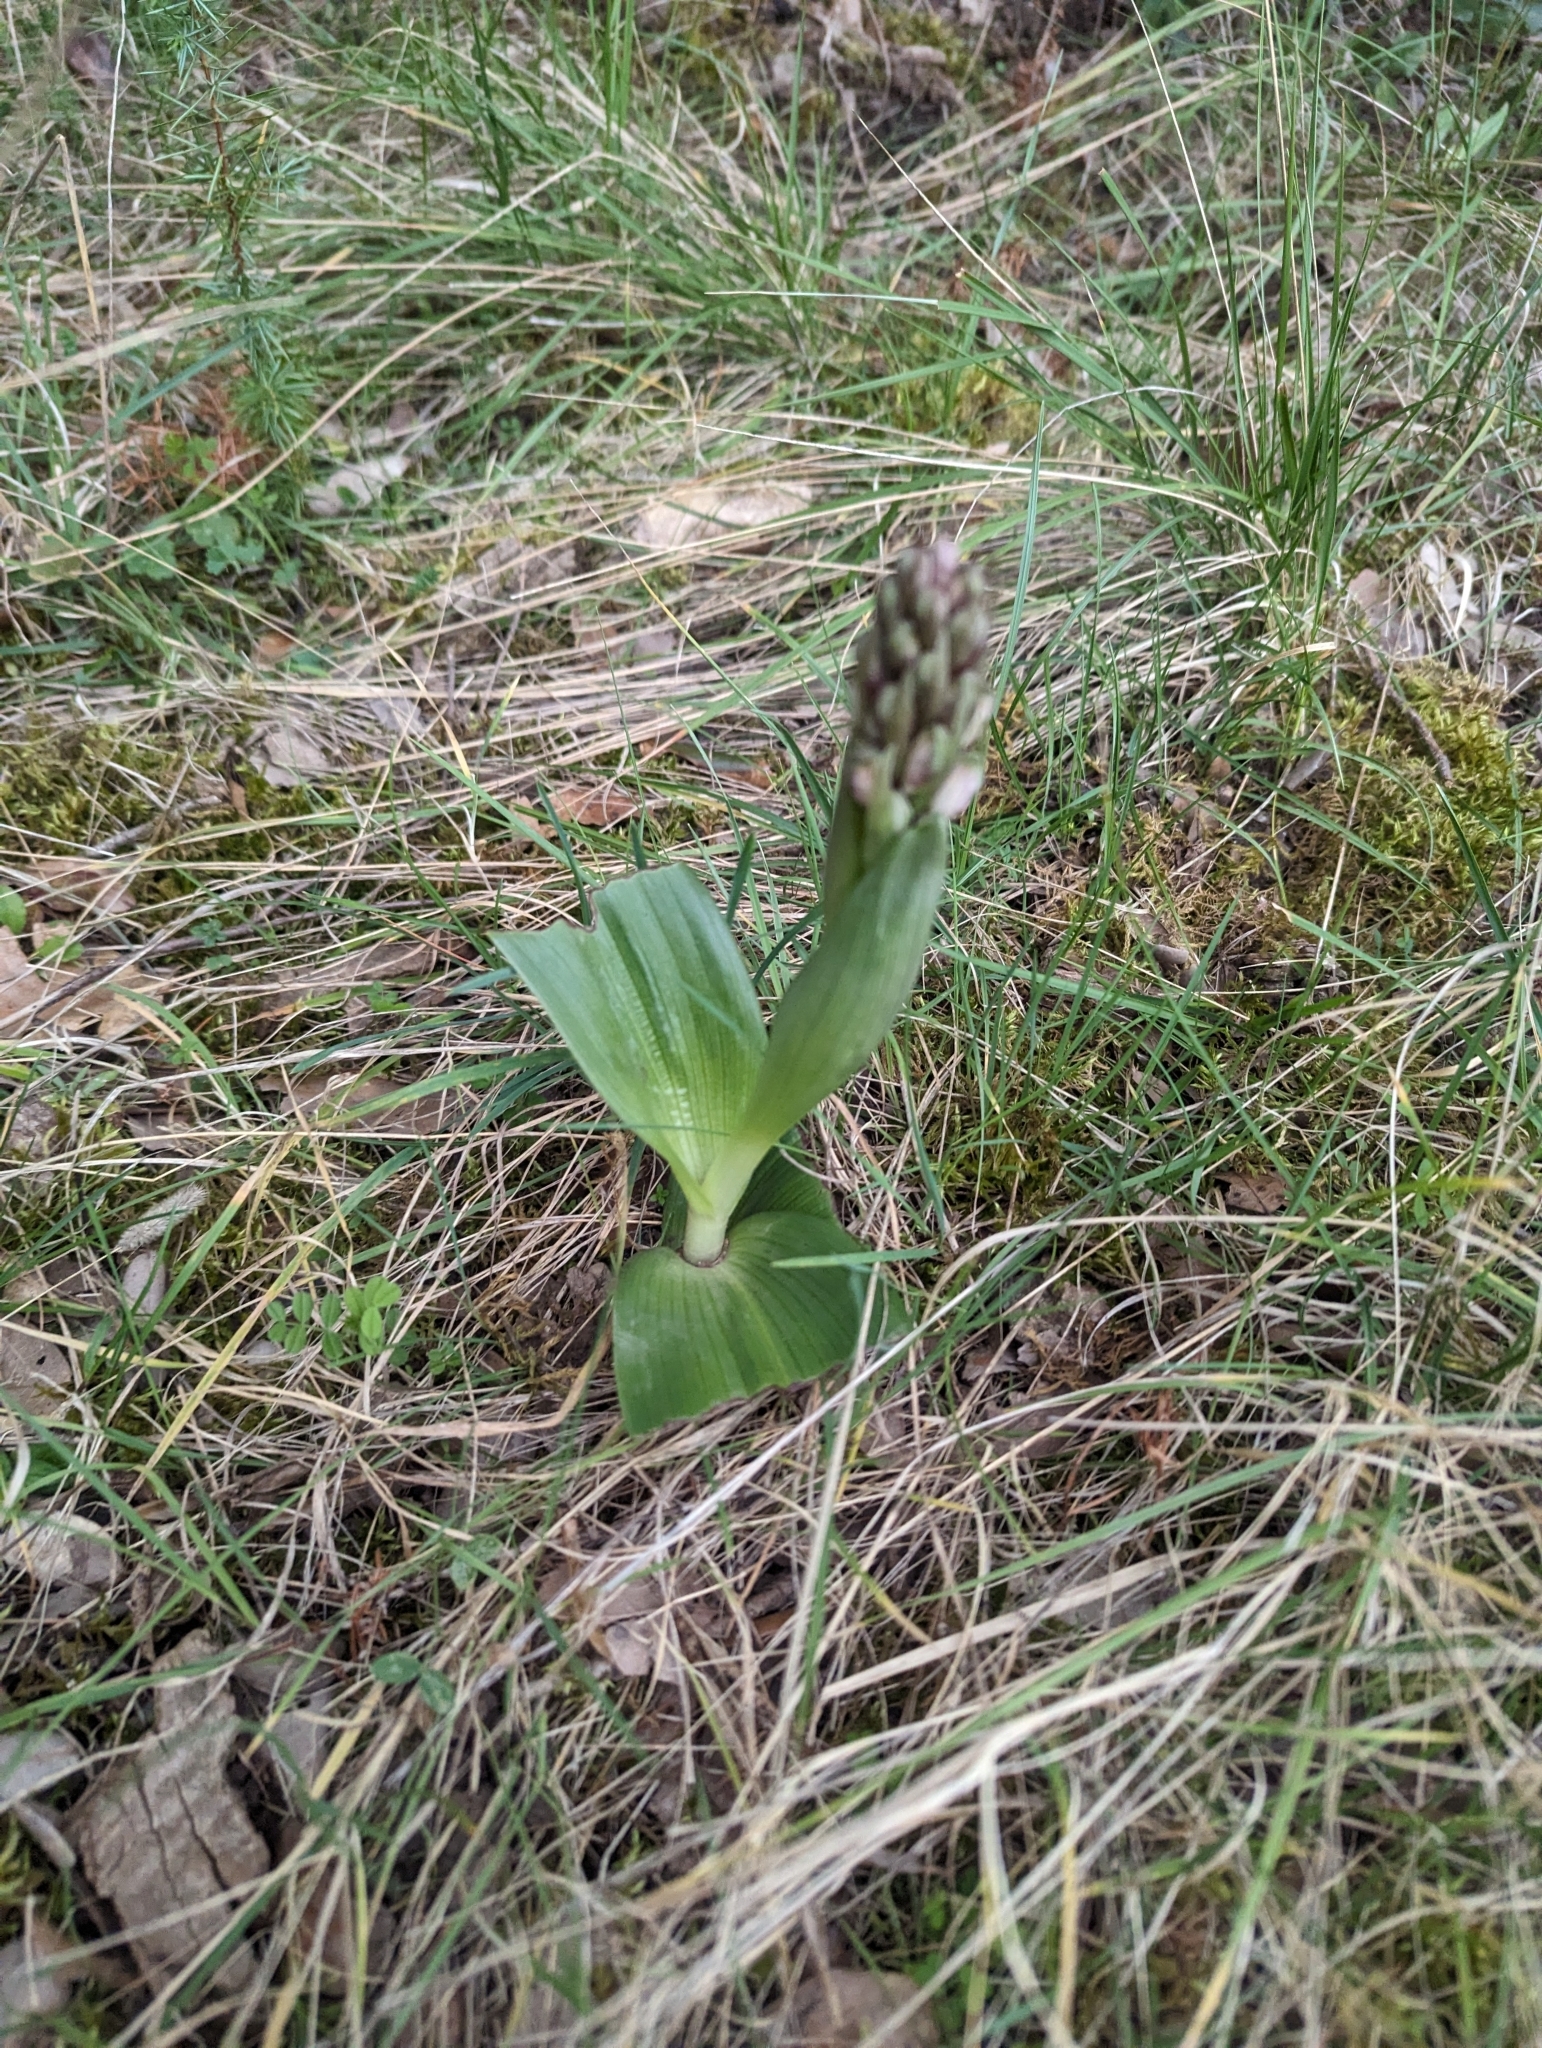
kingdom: Plantae
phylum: Tracheophyta
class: Liliopsida
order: Asparagales
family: Orchidaceae
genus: Himantoglossum
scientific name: Himantoglossum robertianum
